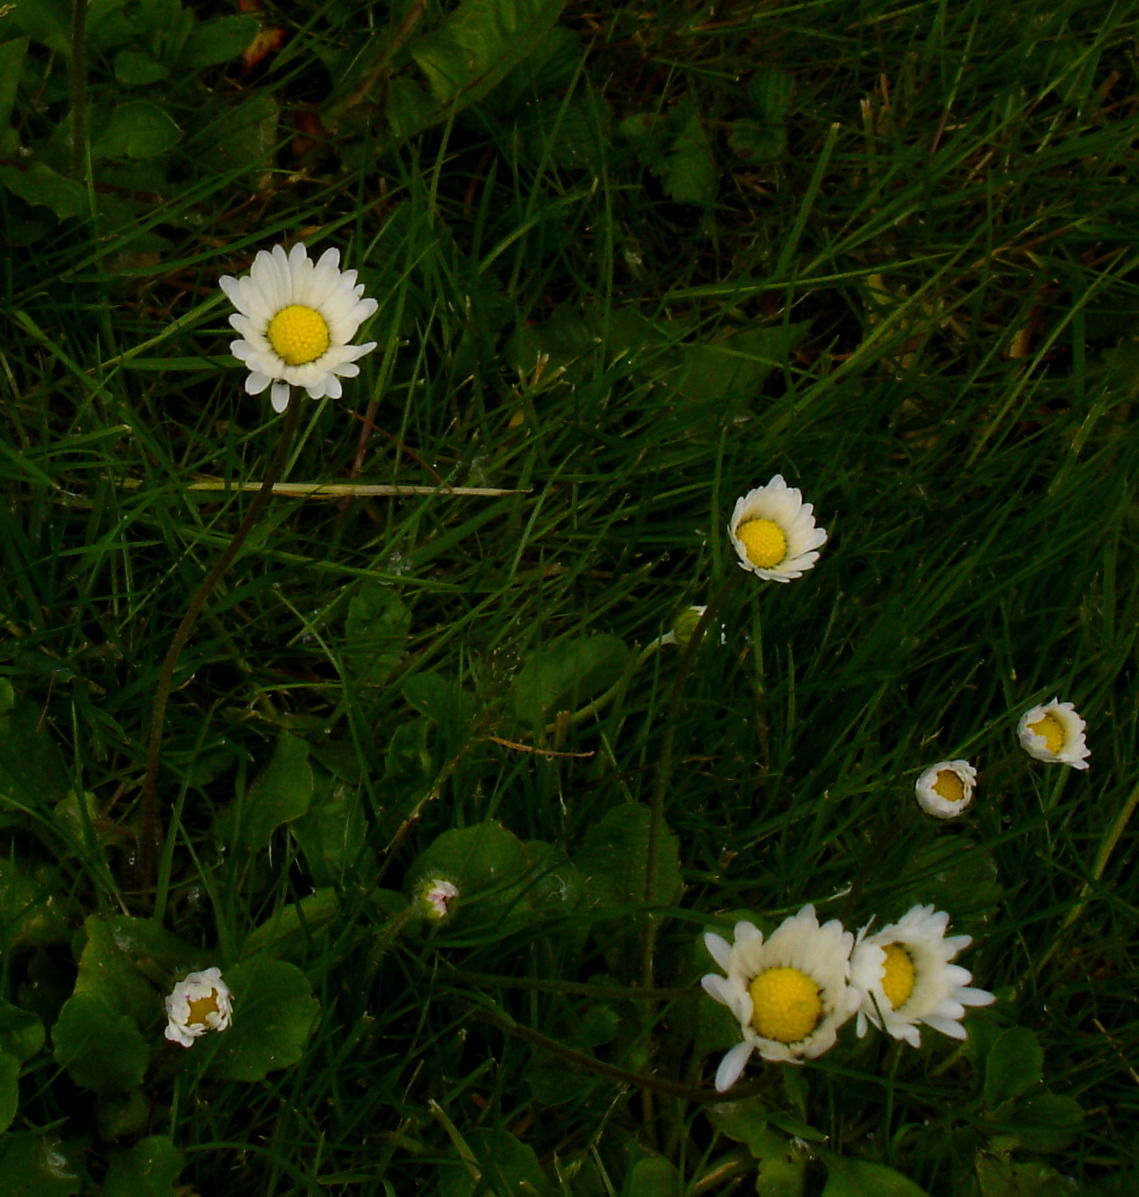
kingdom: Plantae
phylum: Tracheophyta
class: Magnoliopsida
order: Asterales
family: Asteraceae
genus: Bellis
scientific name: Bellis perennis
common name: Lawndaisy
